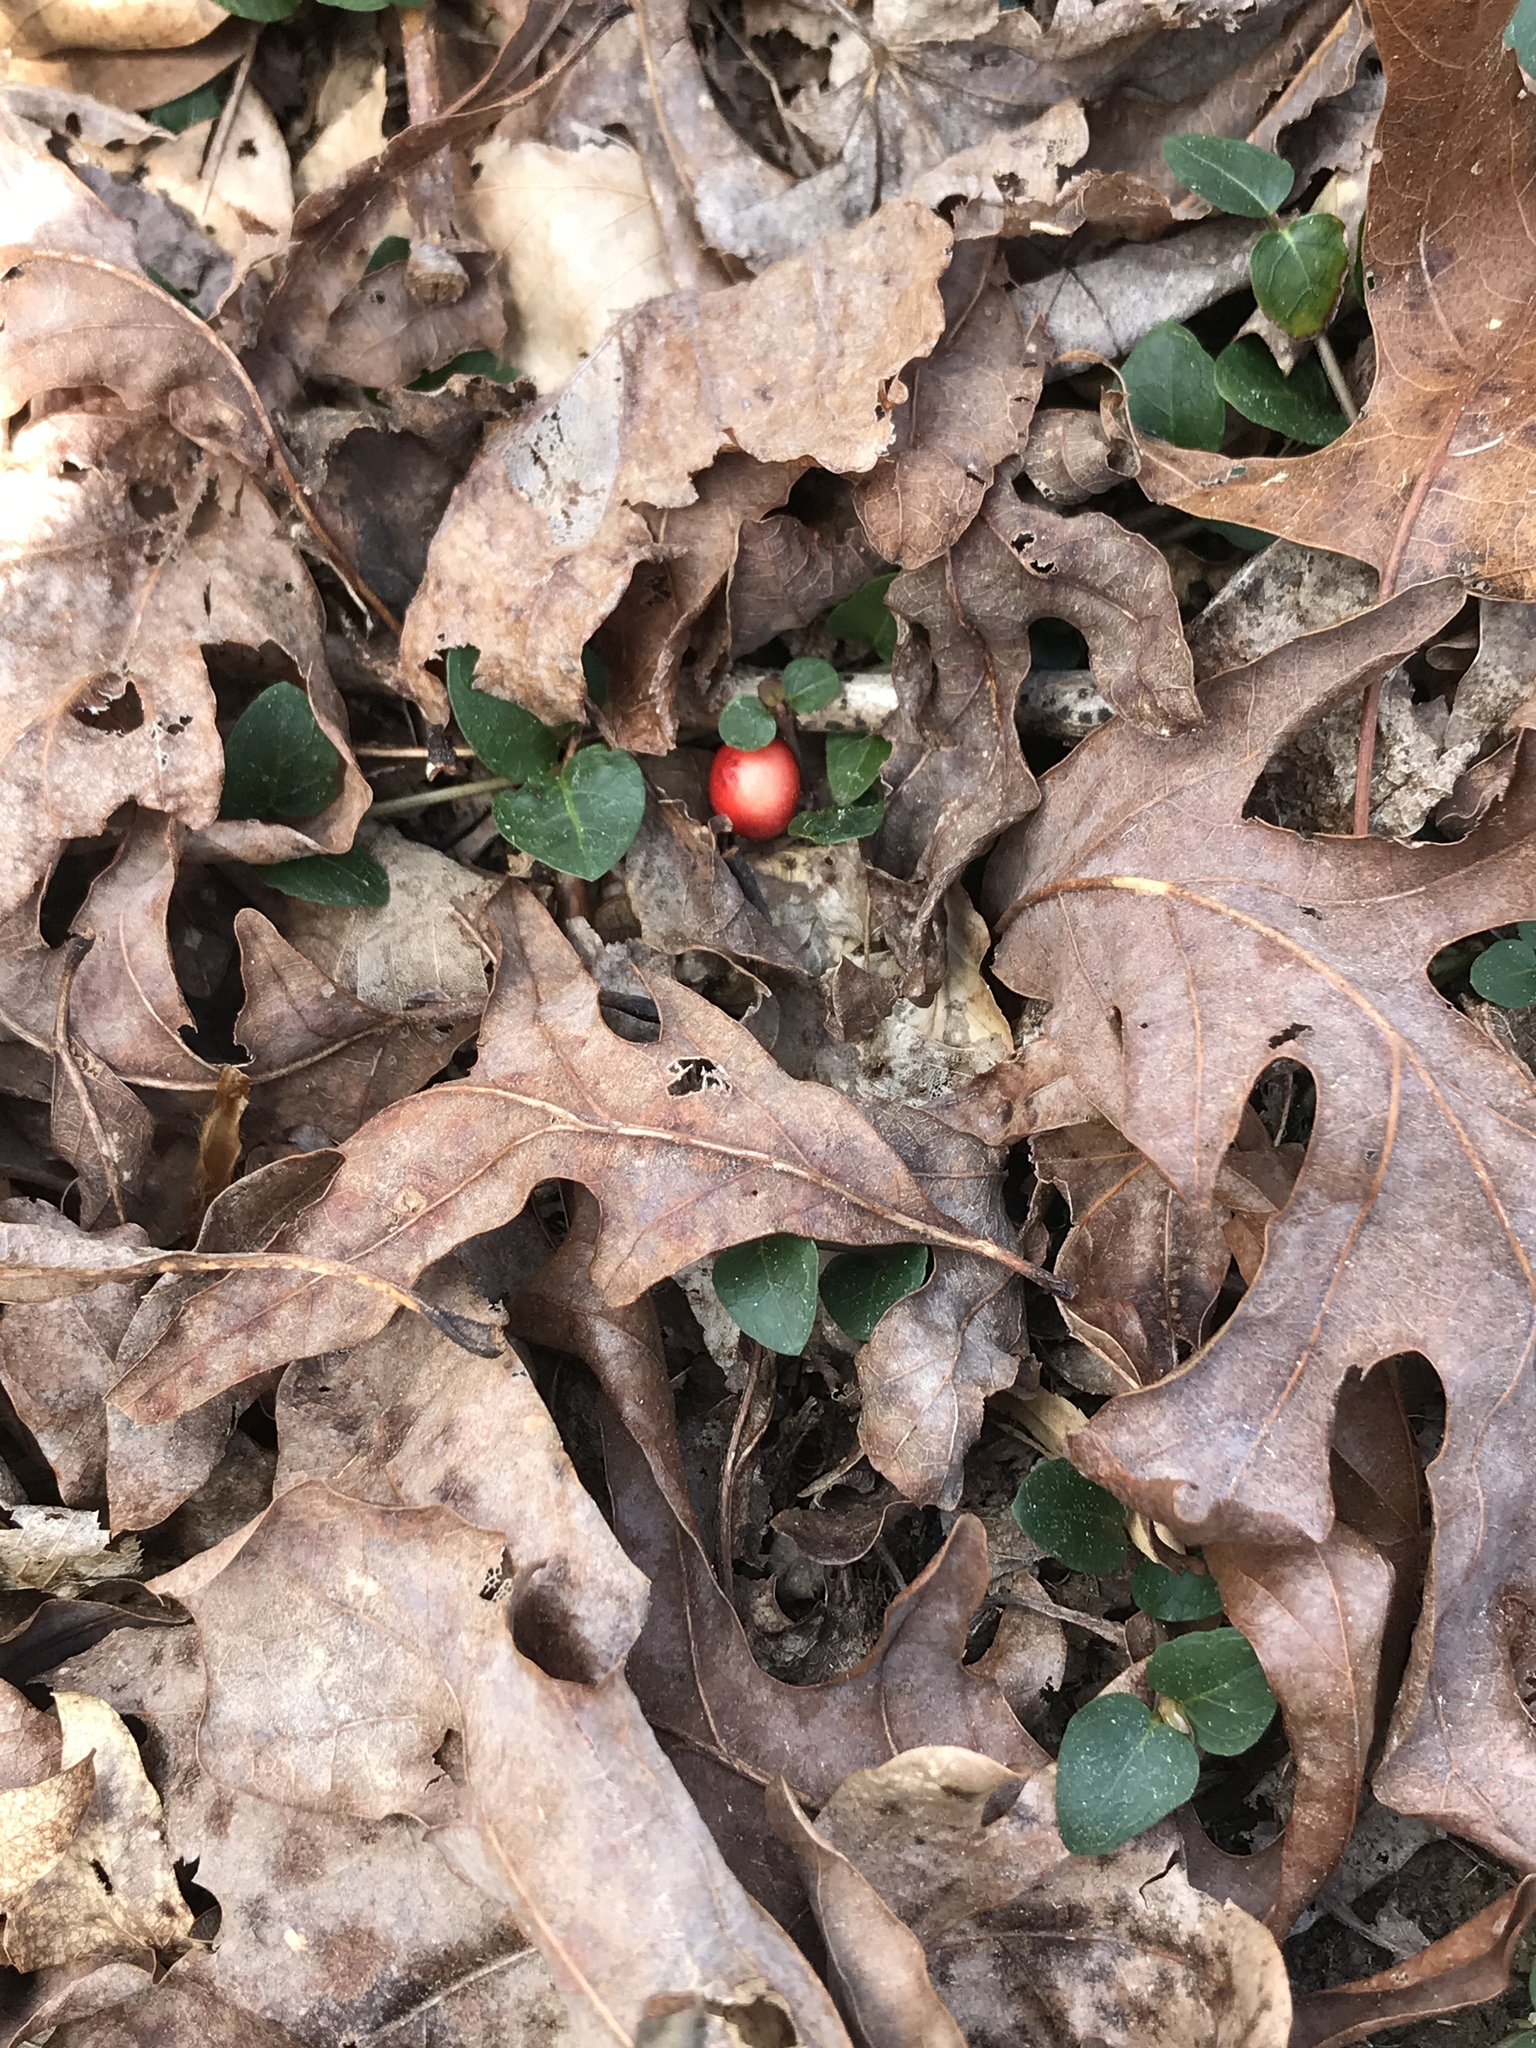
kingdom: Plantae
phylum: Tracheophyta
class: Magnoliopsida
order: Gentianales
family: Rubiaceae
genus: Mitchella
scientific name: Mitchella repens
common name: Partridge-berry
